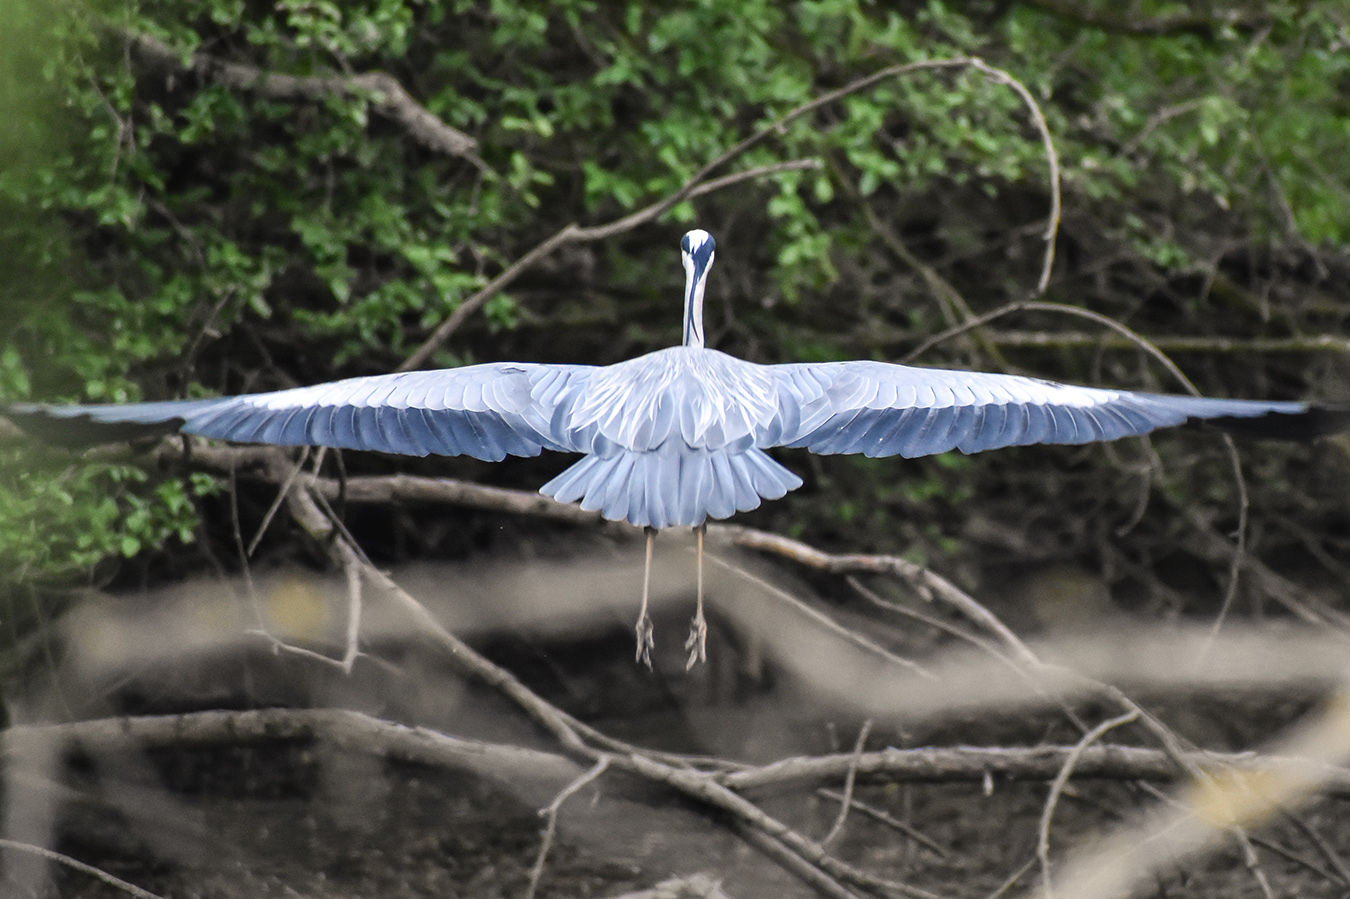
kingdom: Animalia
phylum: Chordata
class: Aves
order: Pelecaniformes
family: Ardeidae
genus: Ardea
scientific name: Ardea cinerea
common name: Grey heron
